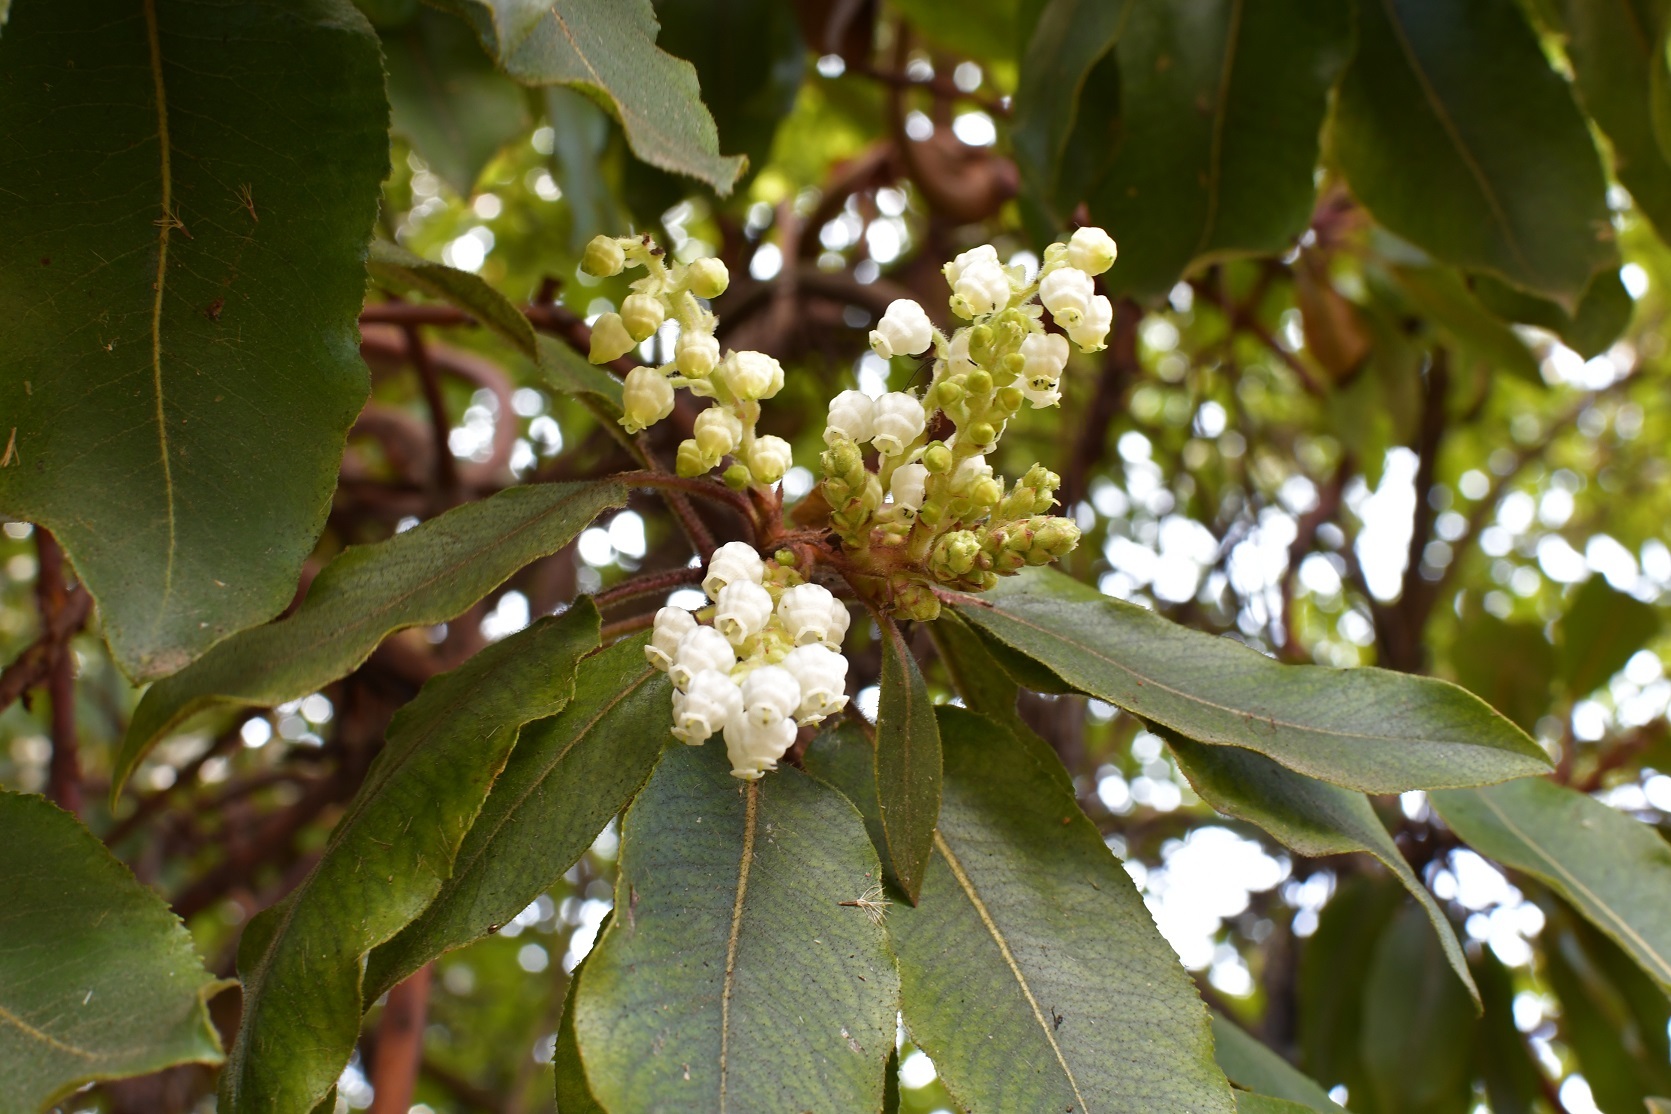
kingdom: Plantae
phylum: Tracheophyta
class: Magnoliopsida
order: Ericales
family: Ericaceae
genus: Arbutus
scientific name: Arbutus xalapensis
